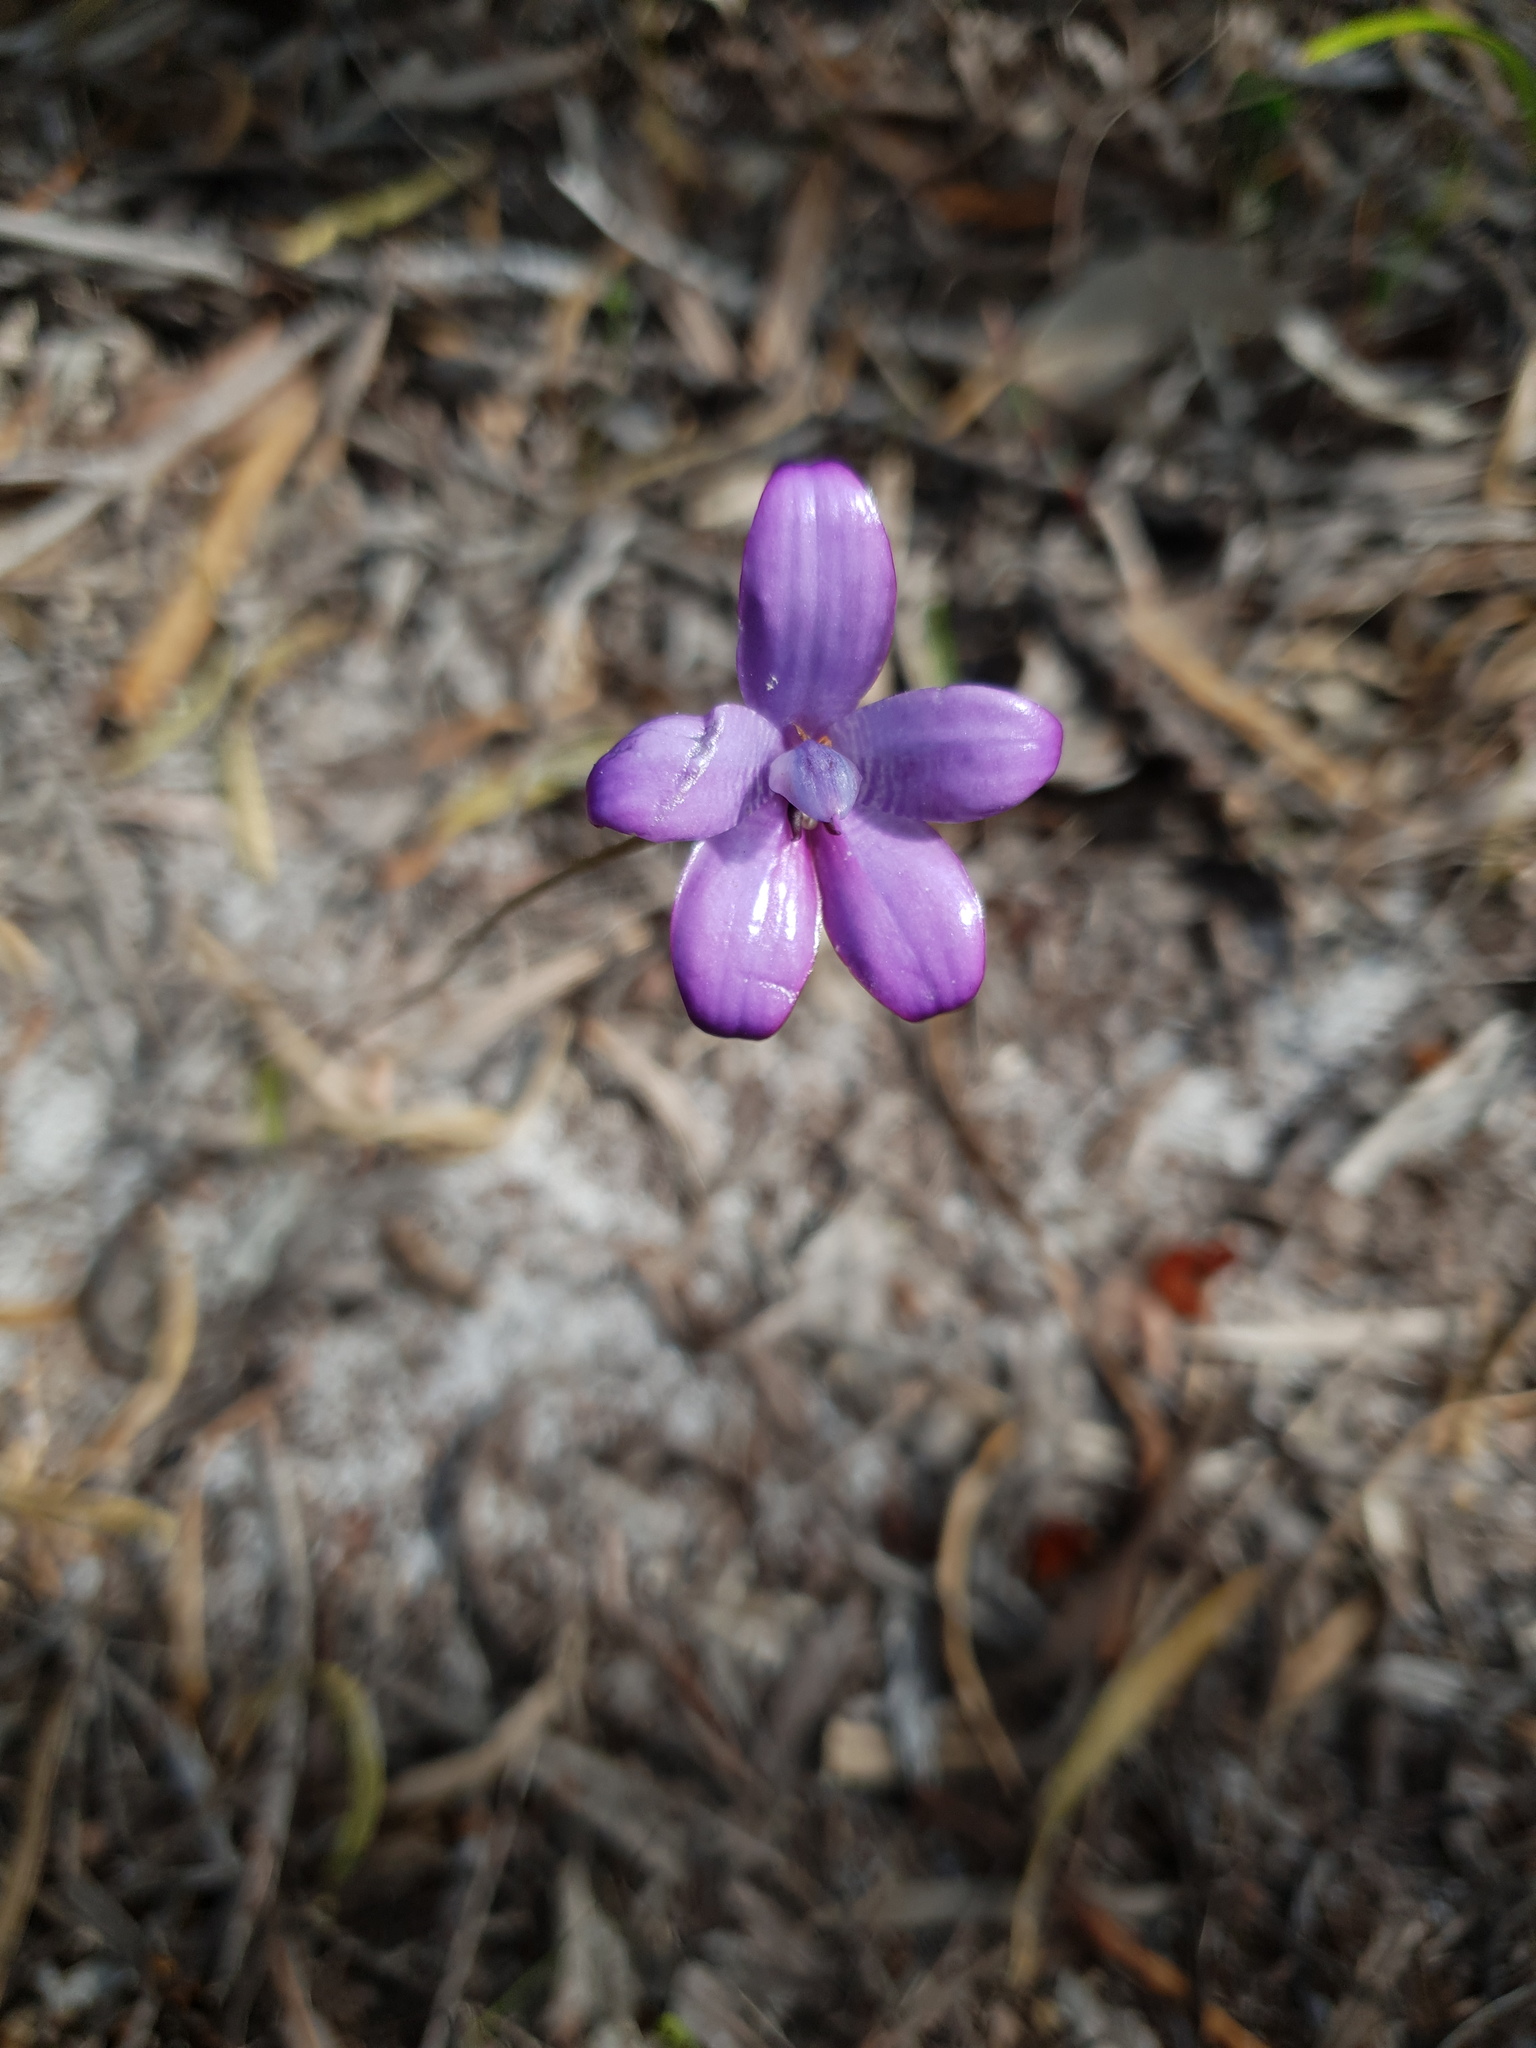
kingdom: Plantae
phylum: Tracheophyta
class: Liliopsida
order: Asparagales
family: Orchidaceae
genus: Caladenia
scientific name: Caladenia brunonis
